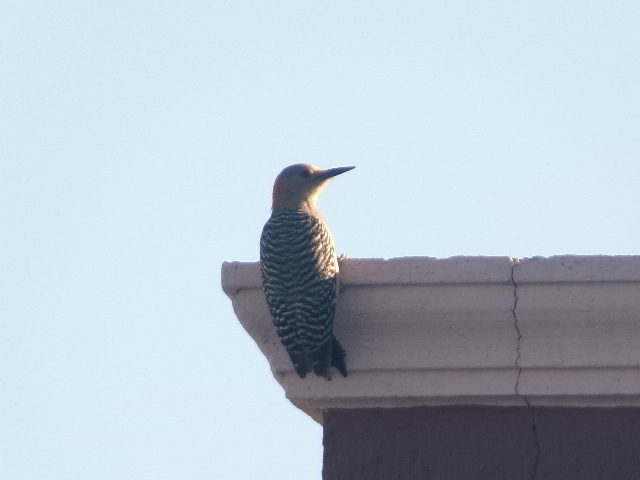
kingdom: Animalia
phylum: Chordata
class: Aves
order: Piciformes
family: Picidae
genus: Melanerpes
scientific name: Melanerpes aurifrons
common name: Golden-fronted woodpecker
